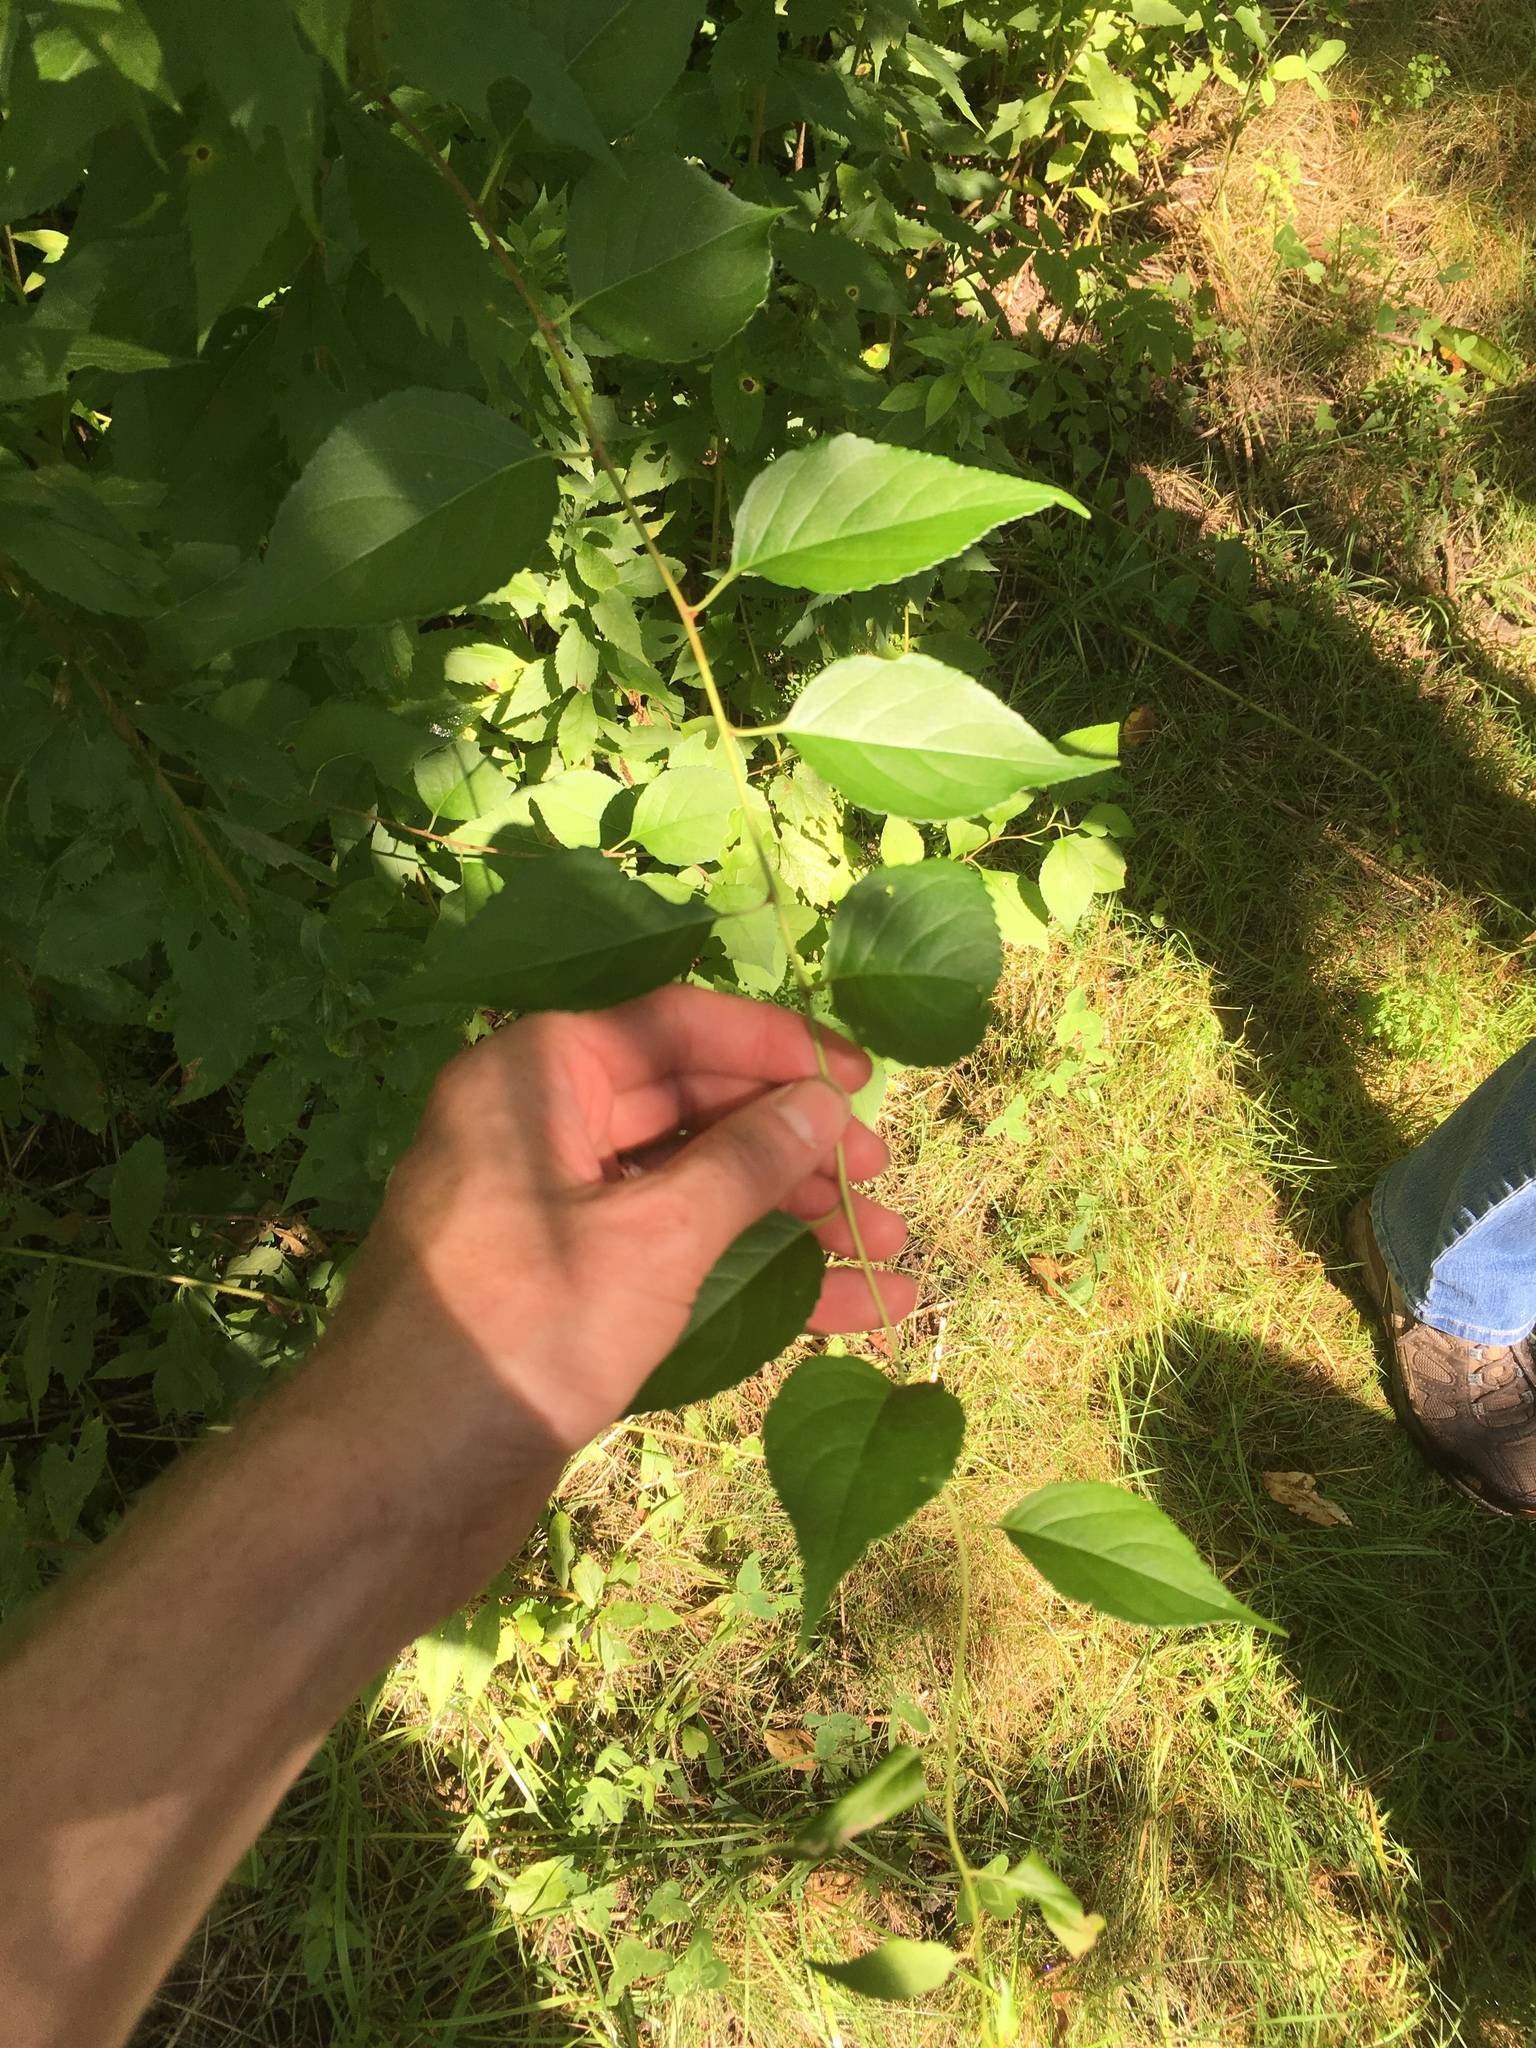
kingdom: Plantae
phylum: Tracheophyta
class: Magnoliopsida
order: Celastrales
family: Celastraceae
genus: Celastrus
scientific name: Celastrus orbiculatus
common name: Oriental bittersweet
